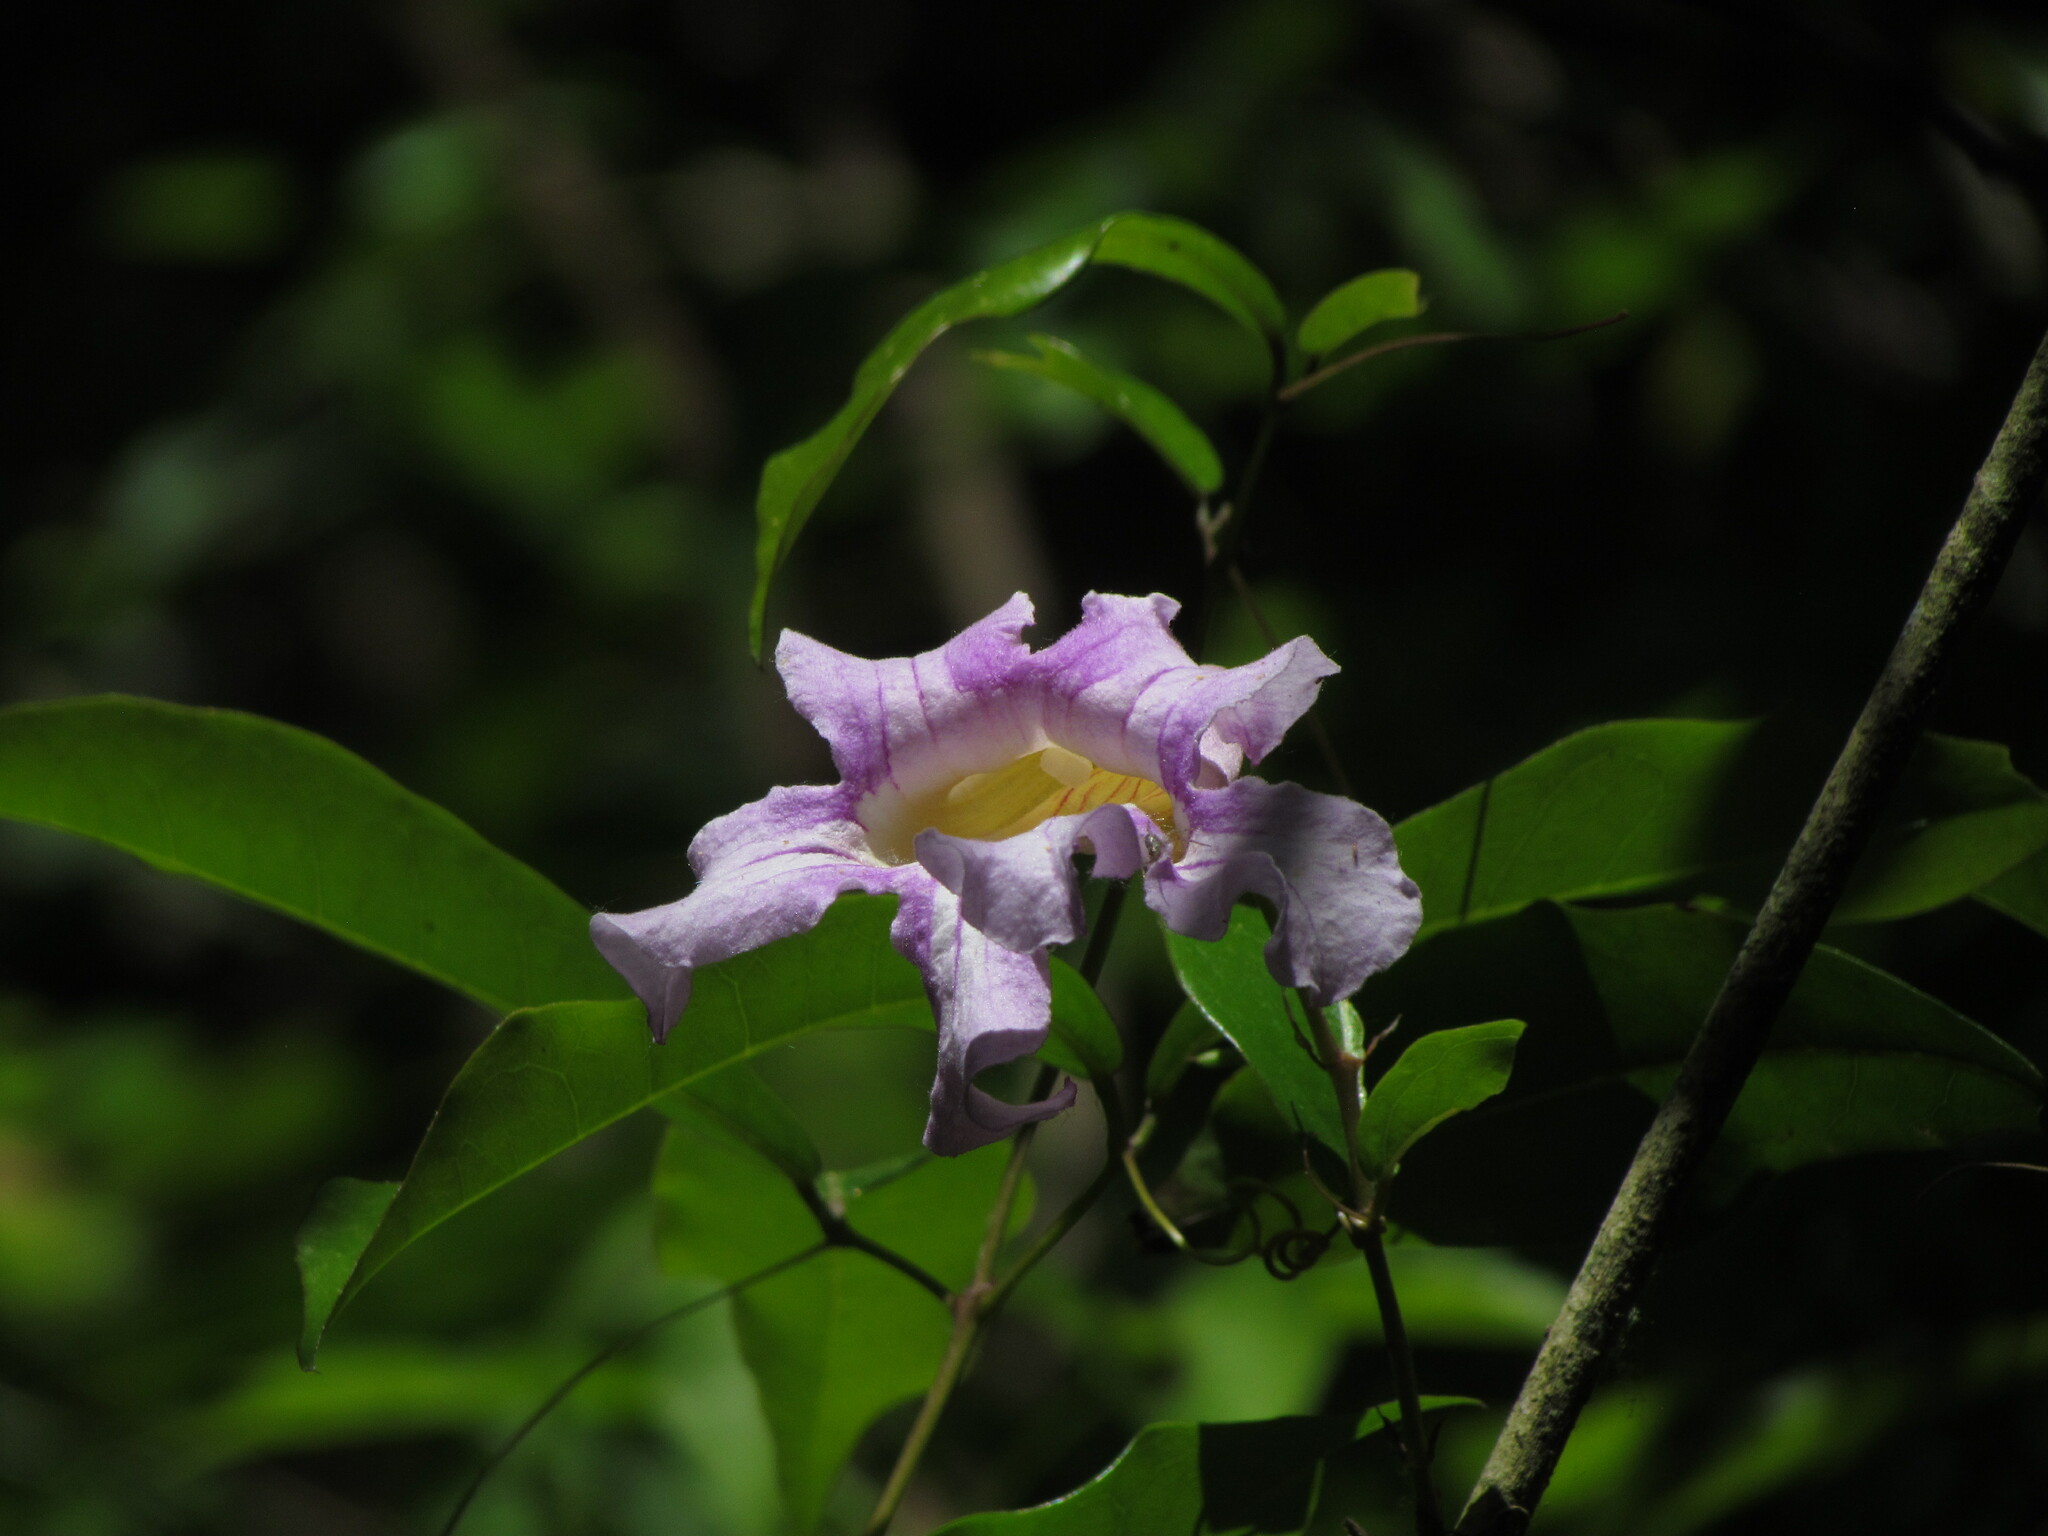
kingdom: Plantae
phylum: Tracheophyta
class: Magnoliopsida
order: Lamiales
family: Bignoniaceae
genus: Bignonia
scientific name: Bignonia callistegioides
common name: Argentine trumpetvine
